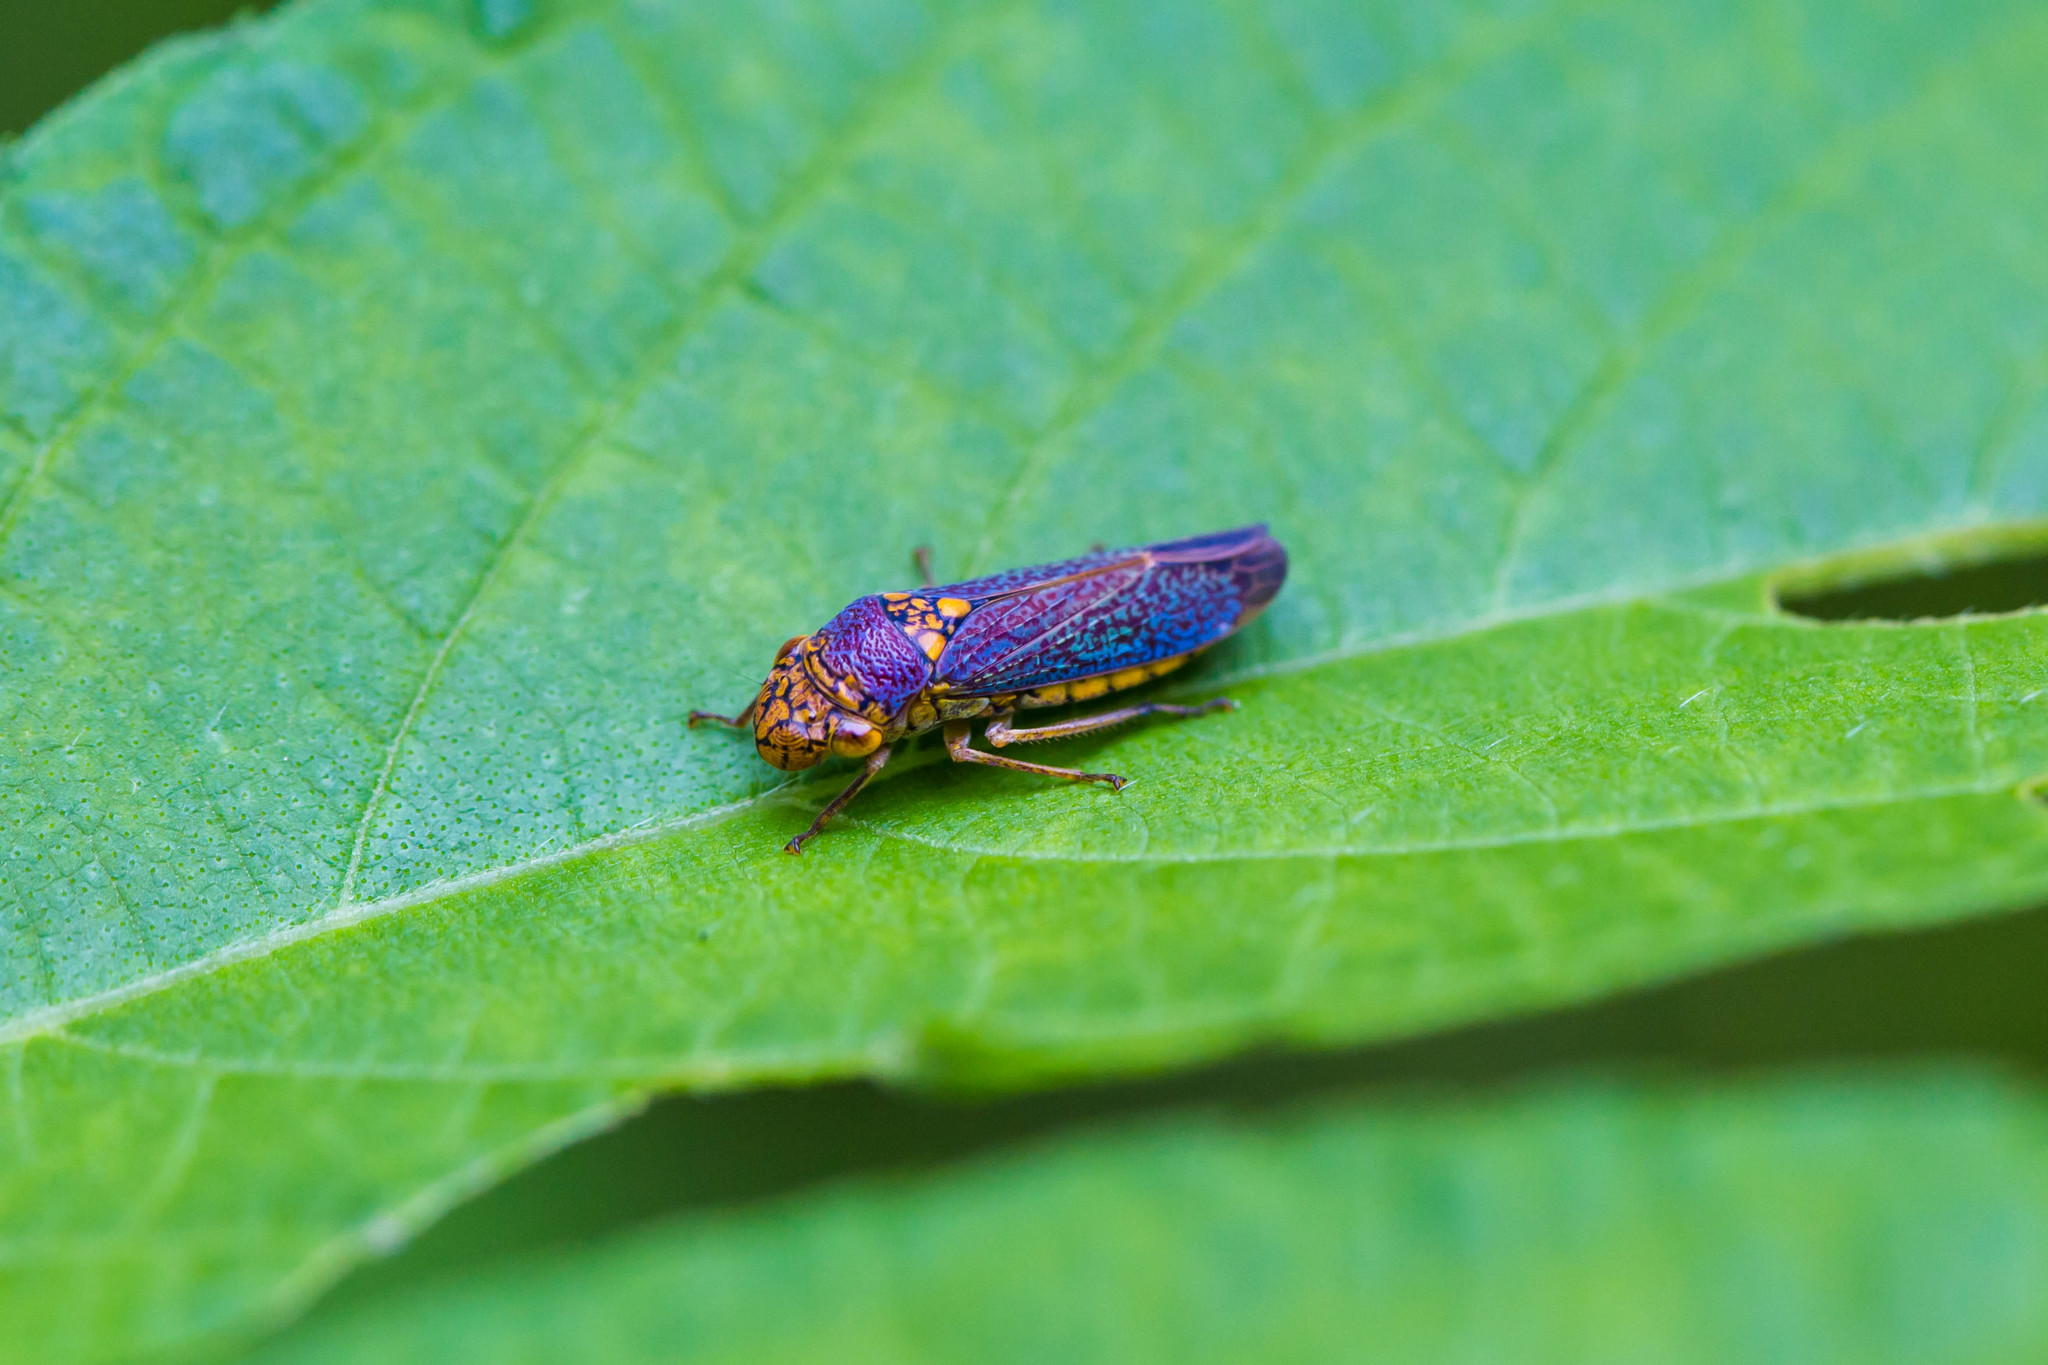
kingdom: Animalia
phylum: Arthropoda
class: Insecta
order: Hemiptera
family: Cicadellidae
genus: Oncometopia
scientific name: Oncometopia orbona
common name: Broad-headed sharpshooter
